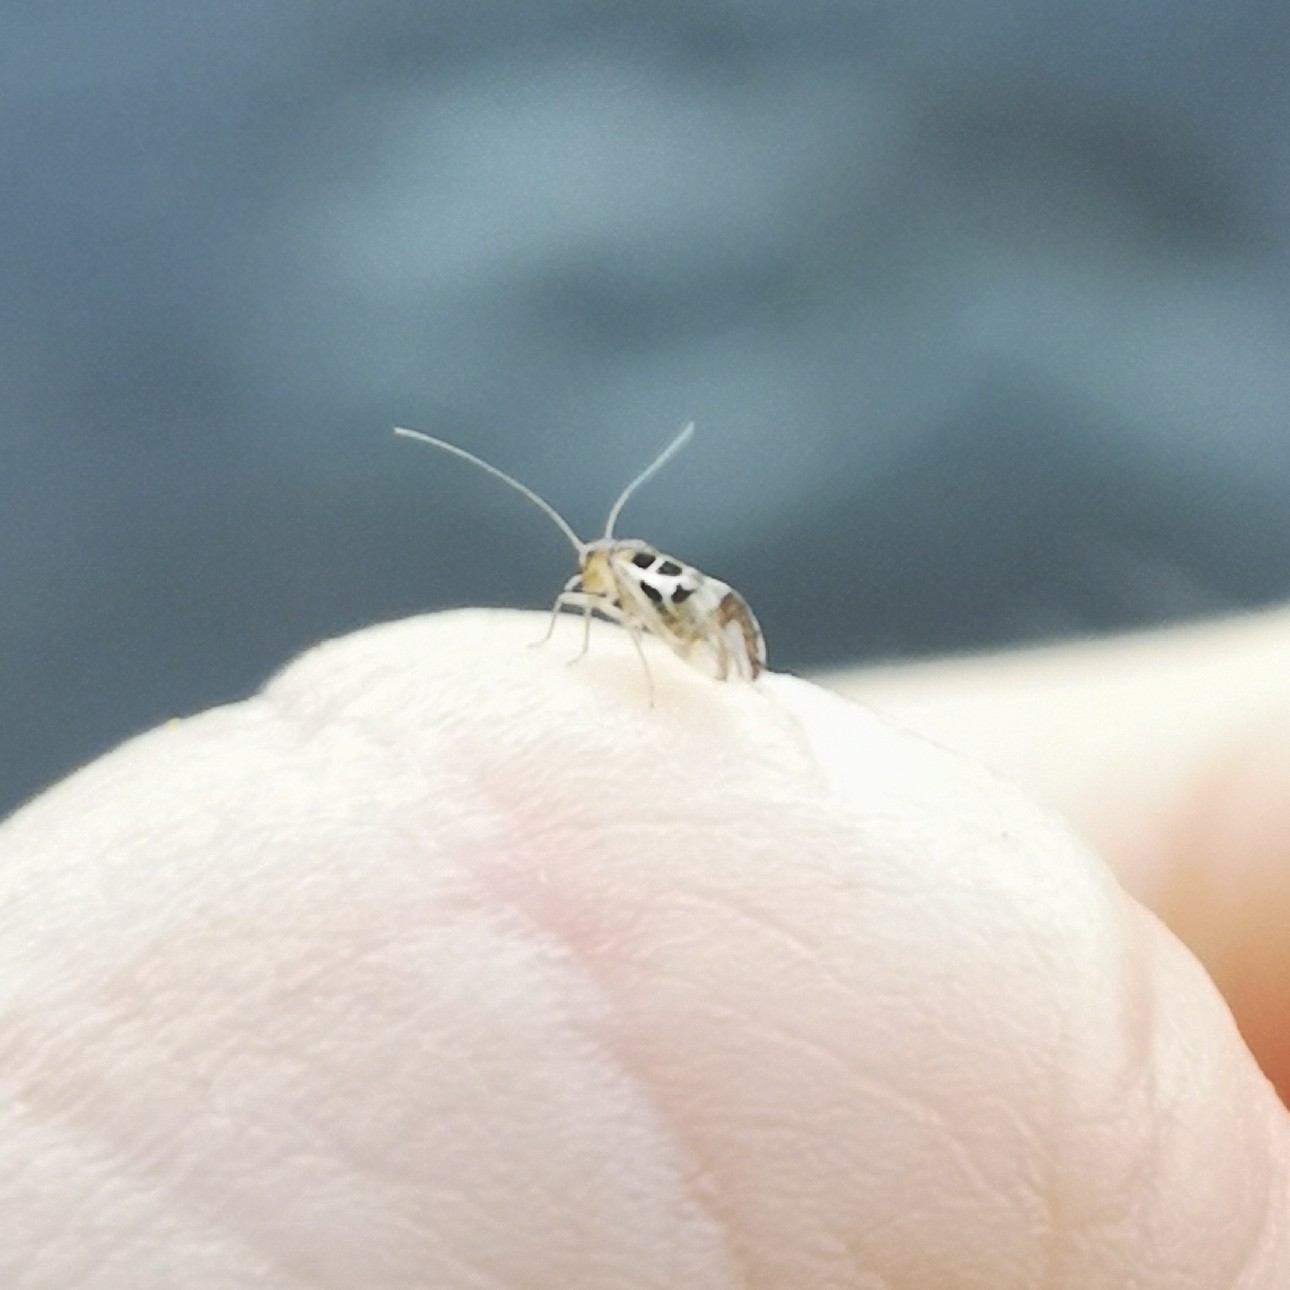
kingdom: Animalia
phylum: Arthropoda
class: Insecta
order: Psocodea
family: Stenopsocidae
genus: Graphopsocus
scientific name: Graphopsocus cruciatus
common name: Lizard bark louse
